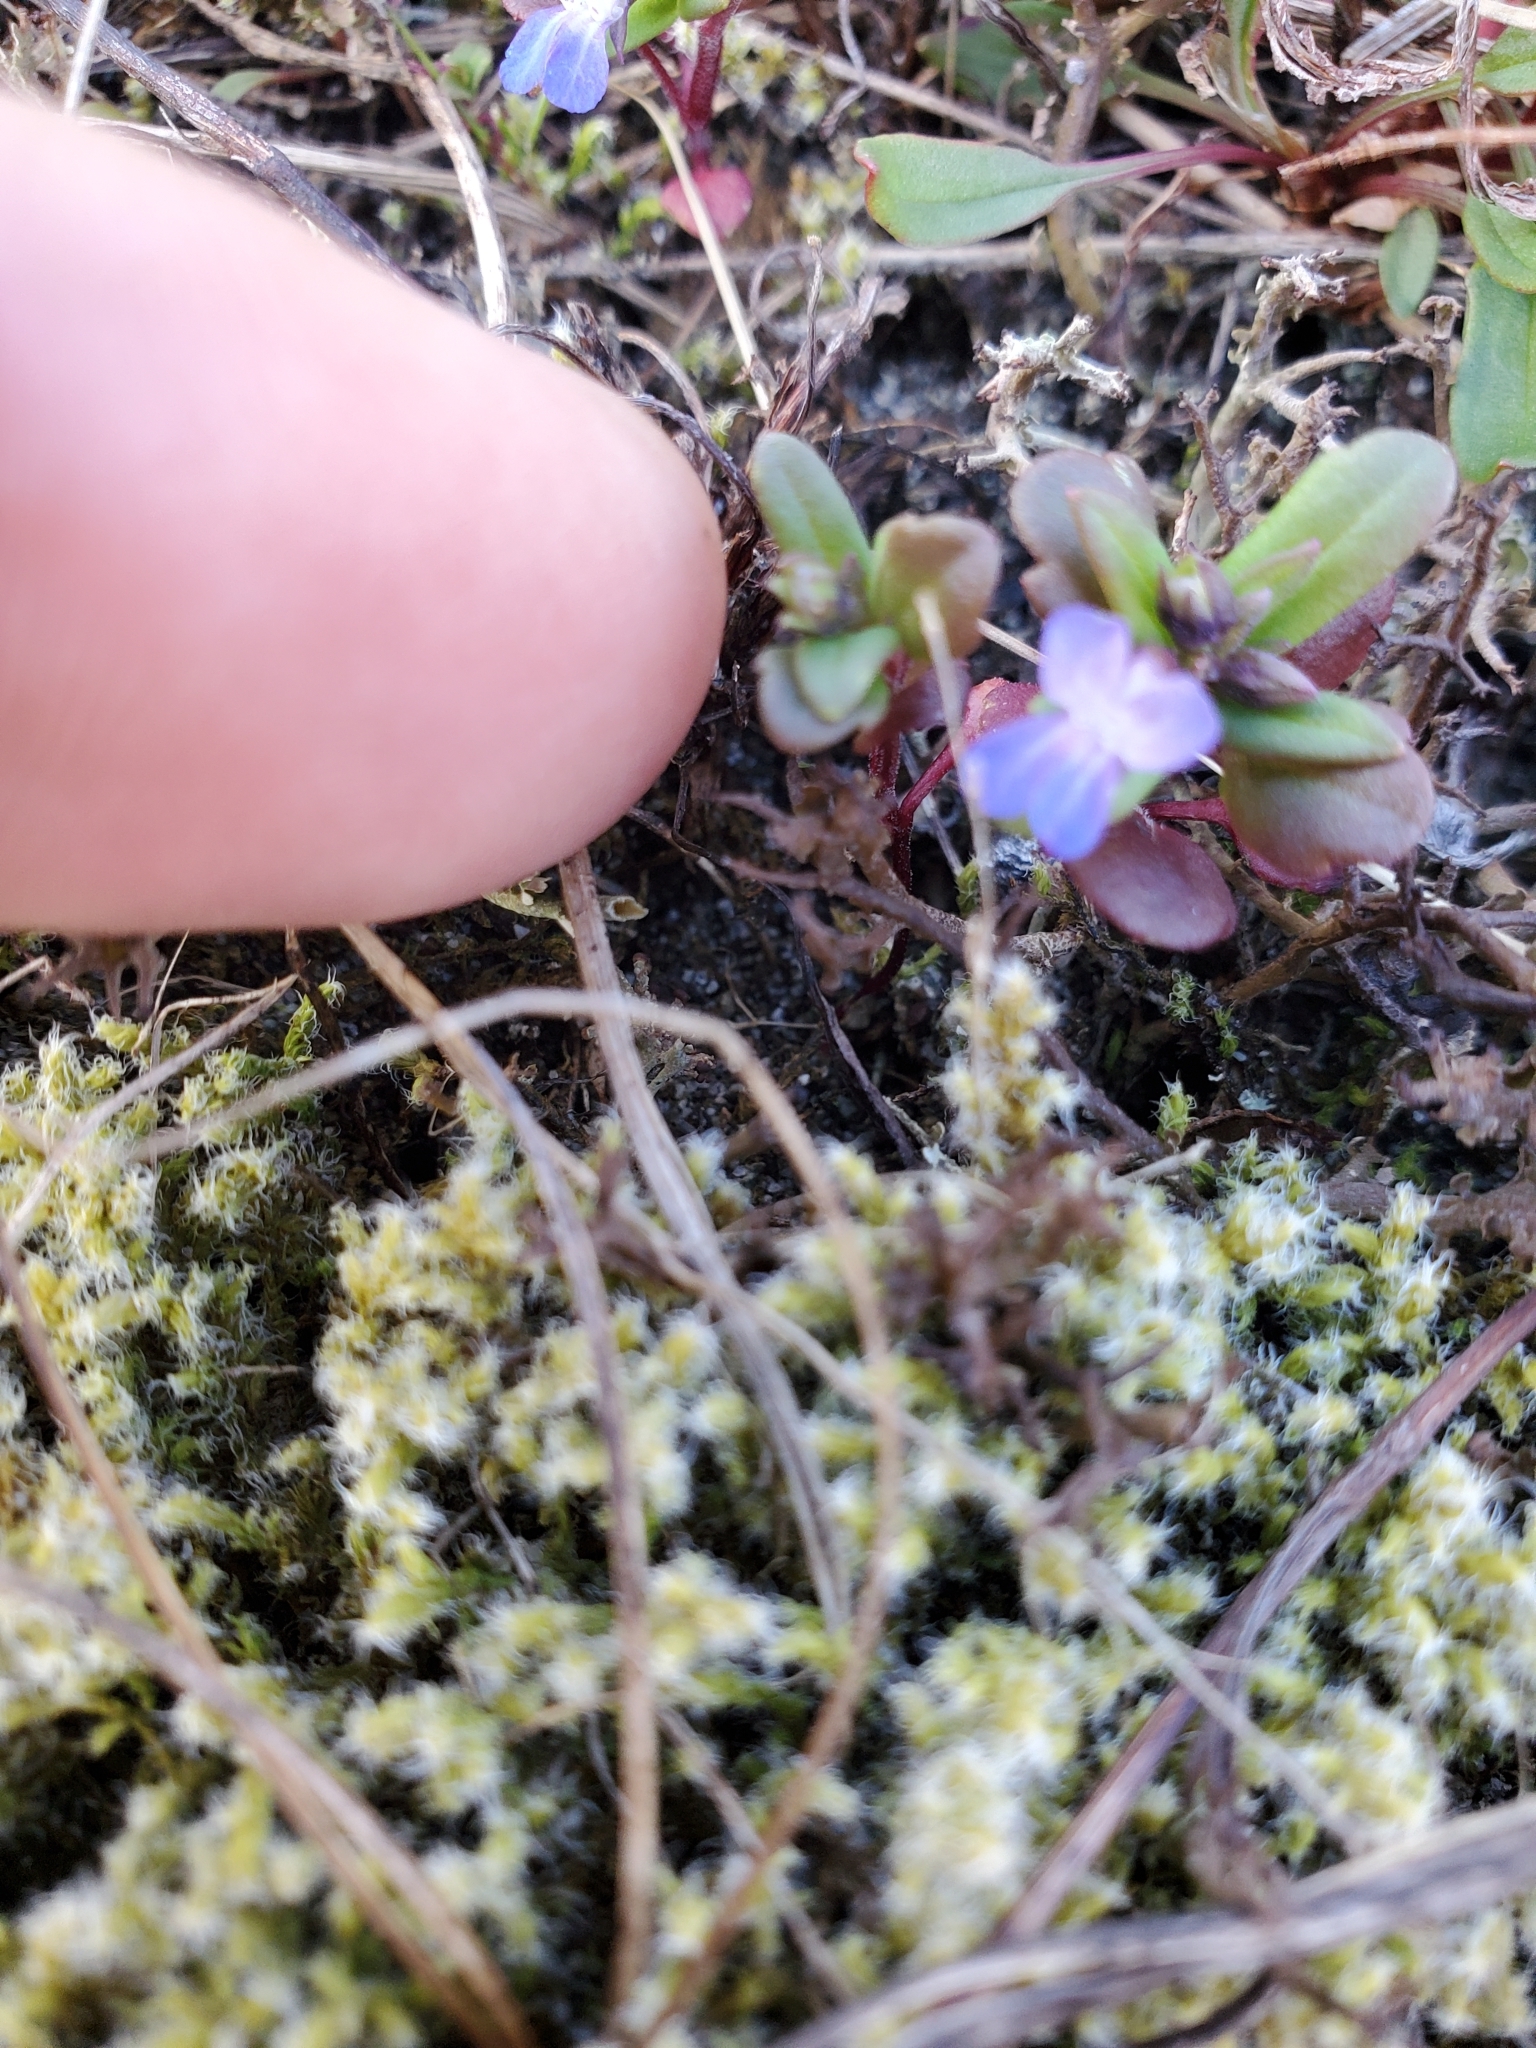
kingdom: Plantae
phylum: Tracheophyta
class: Magnoliopsida
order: Lamiales
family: Plantaginaceae
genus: Collinsia
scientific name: Collinsia parviflora
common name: Blue-lips
